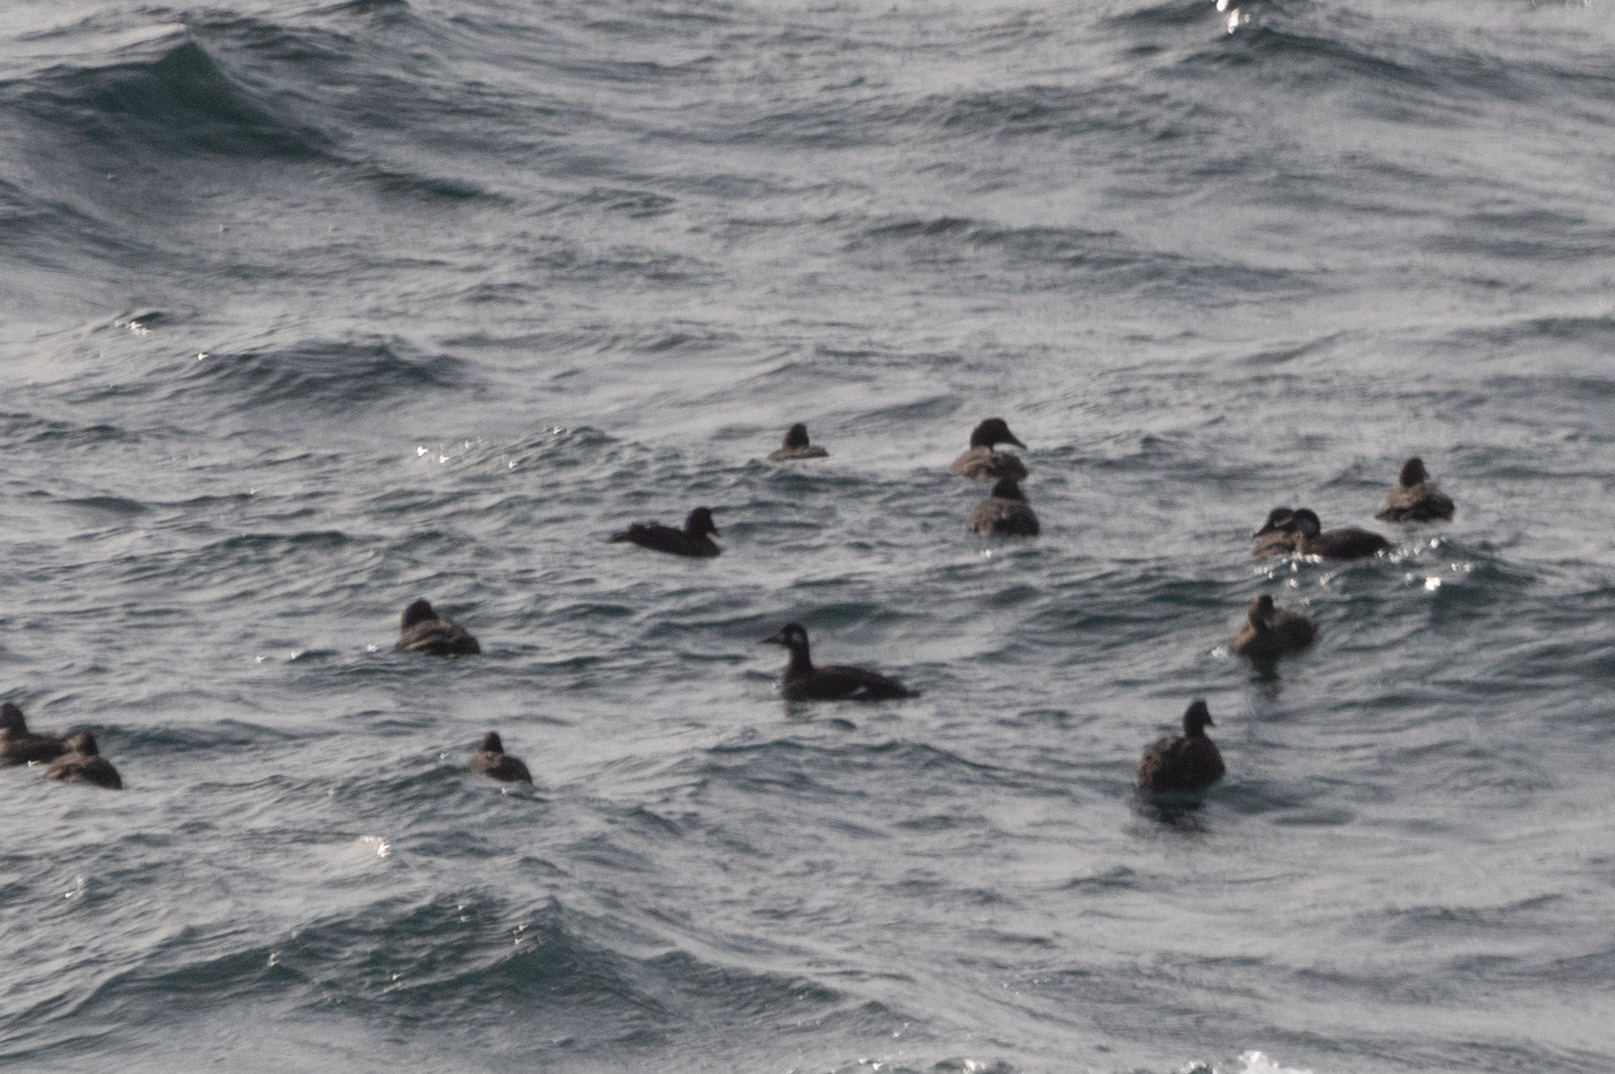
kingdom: Animalia
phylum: Chordata
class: Aves
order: Anseriformes
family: Anatidae
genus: Melanitta
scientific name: Melanitta deglandi
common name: White-winged scoter
